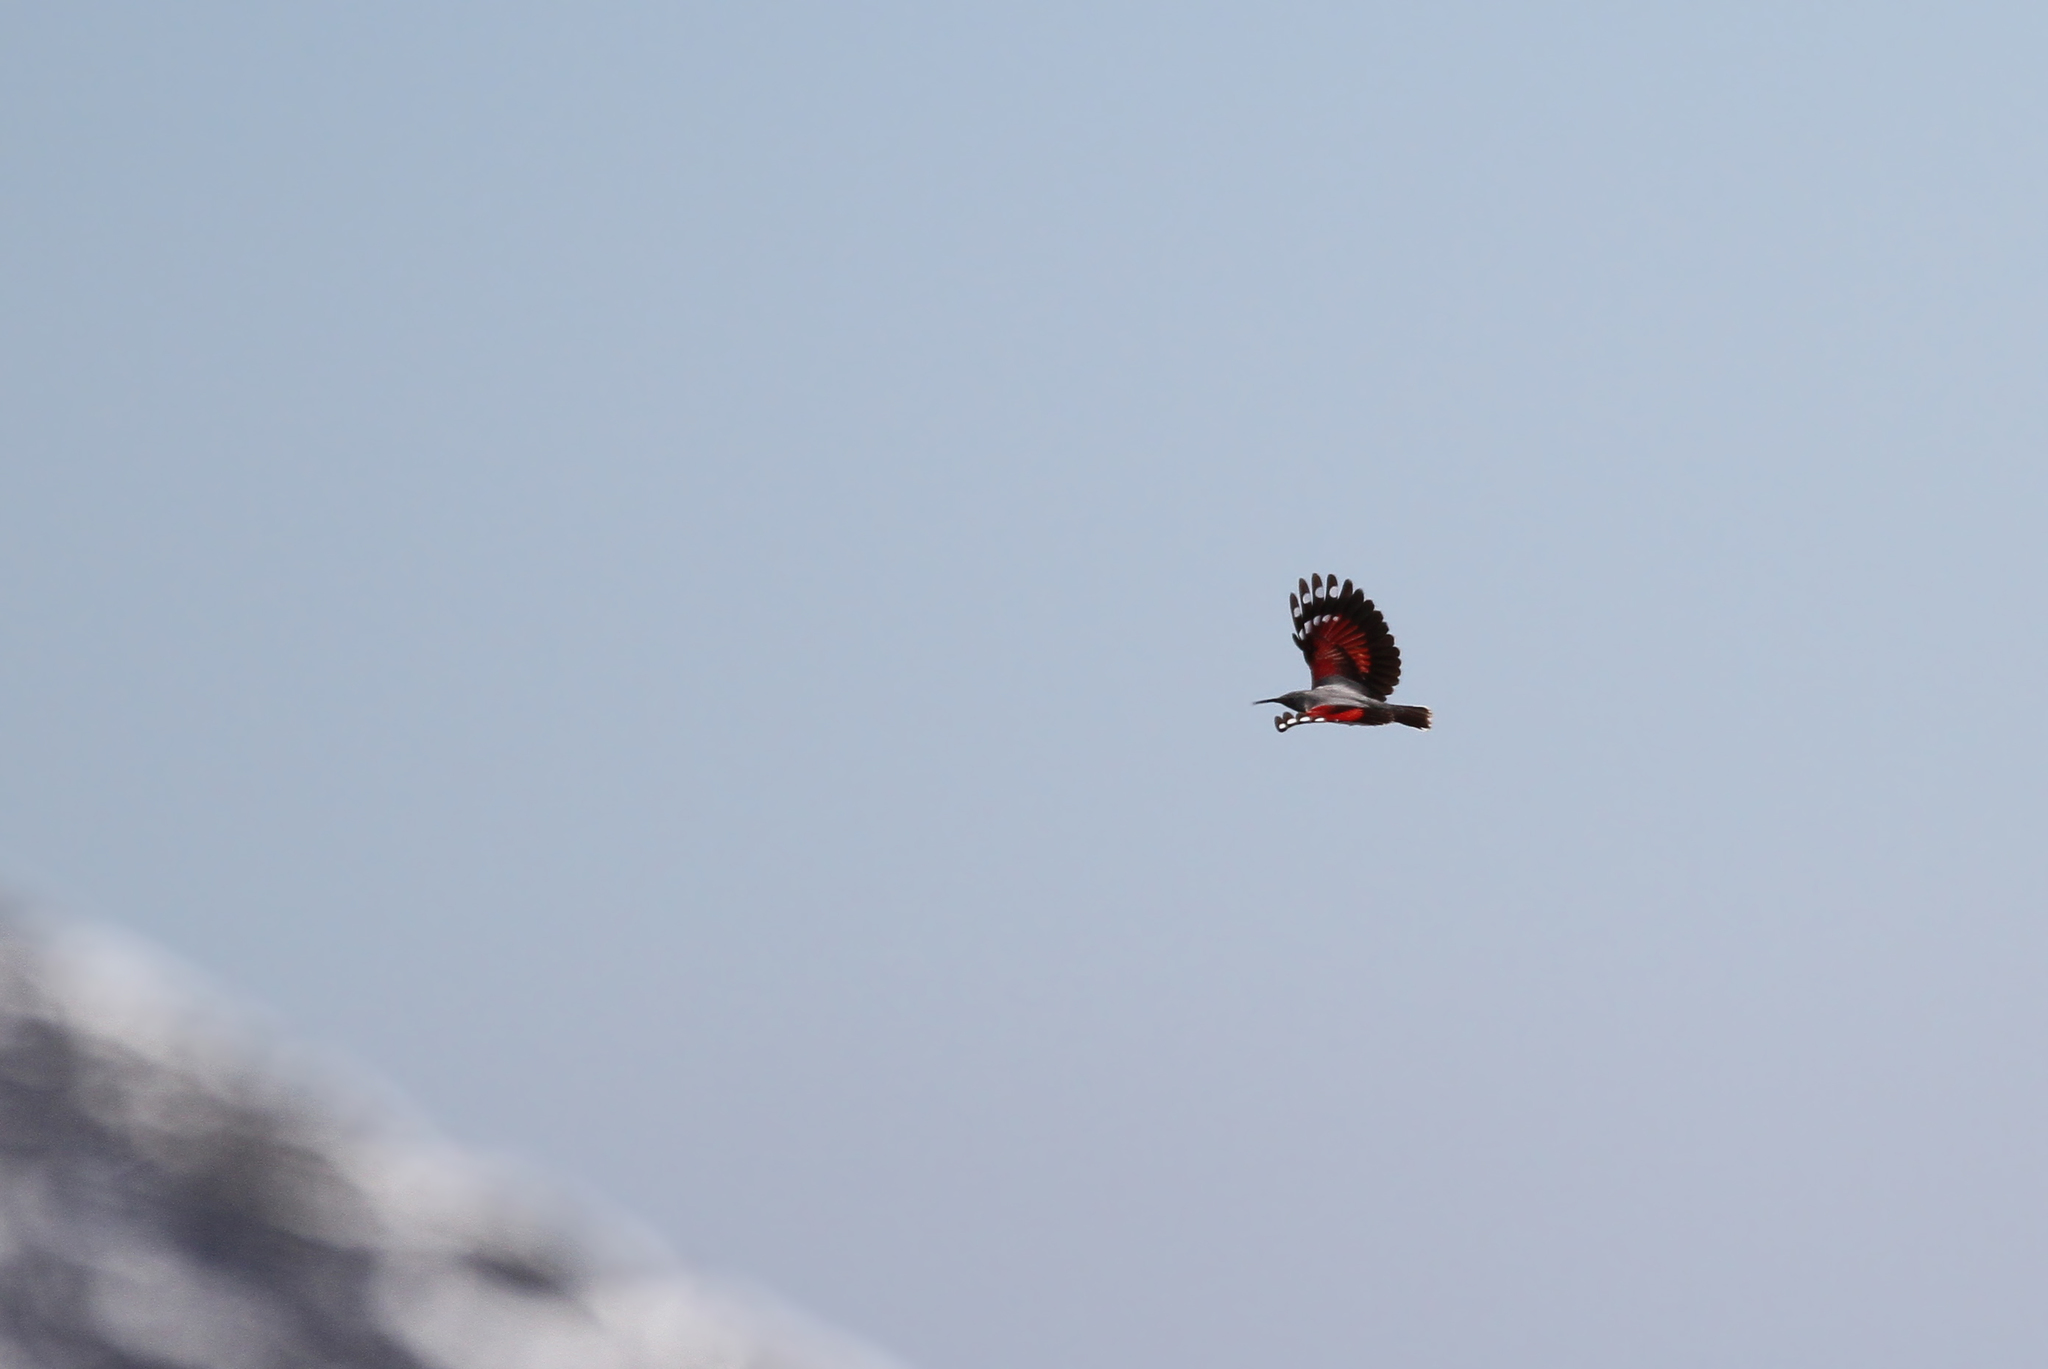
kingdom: Animalia
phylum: Chordata
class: Aves
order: Passeriformes
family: Tichodromidae
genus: Tichodroma
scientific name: Tichodroma muraria
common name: Wallcreeper
